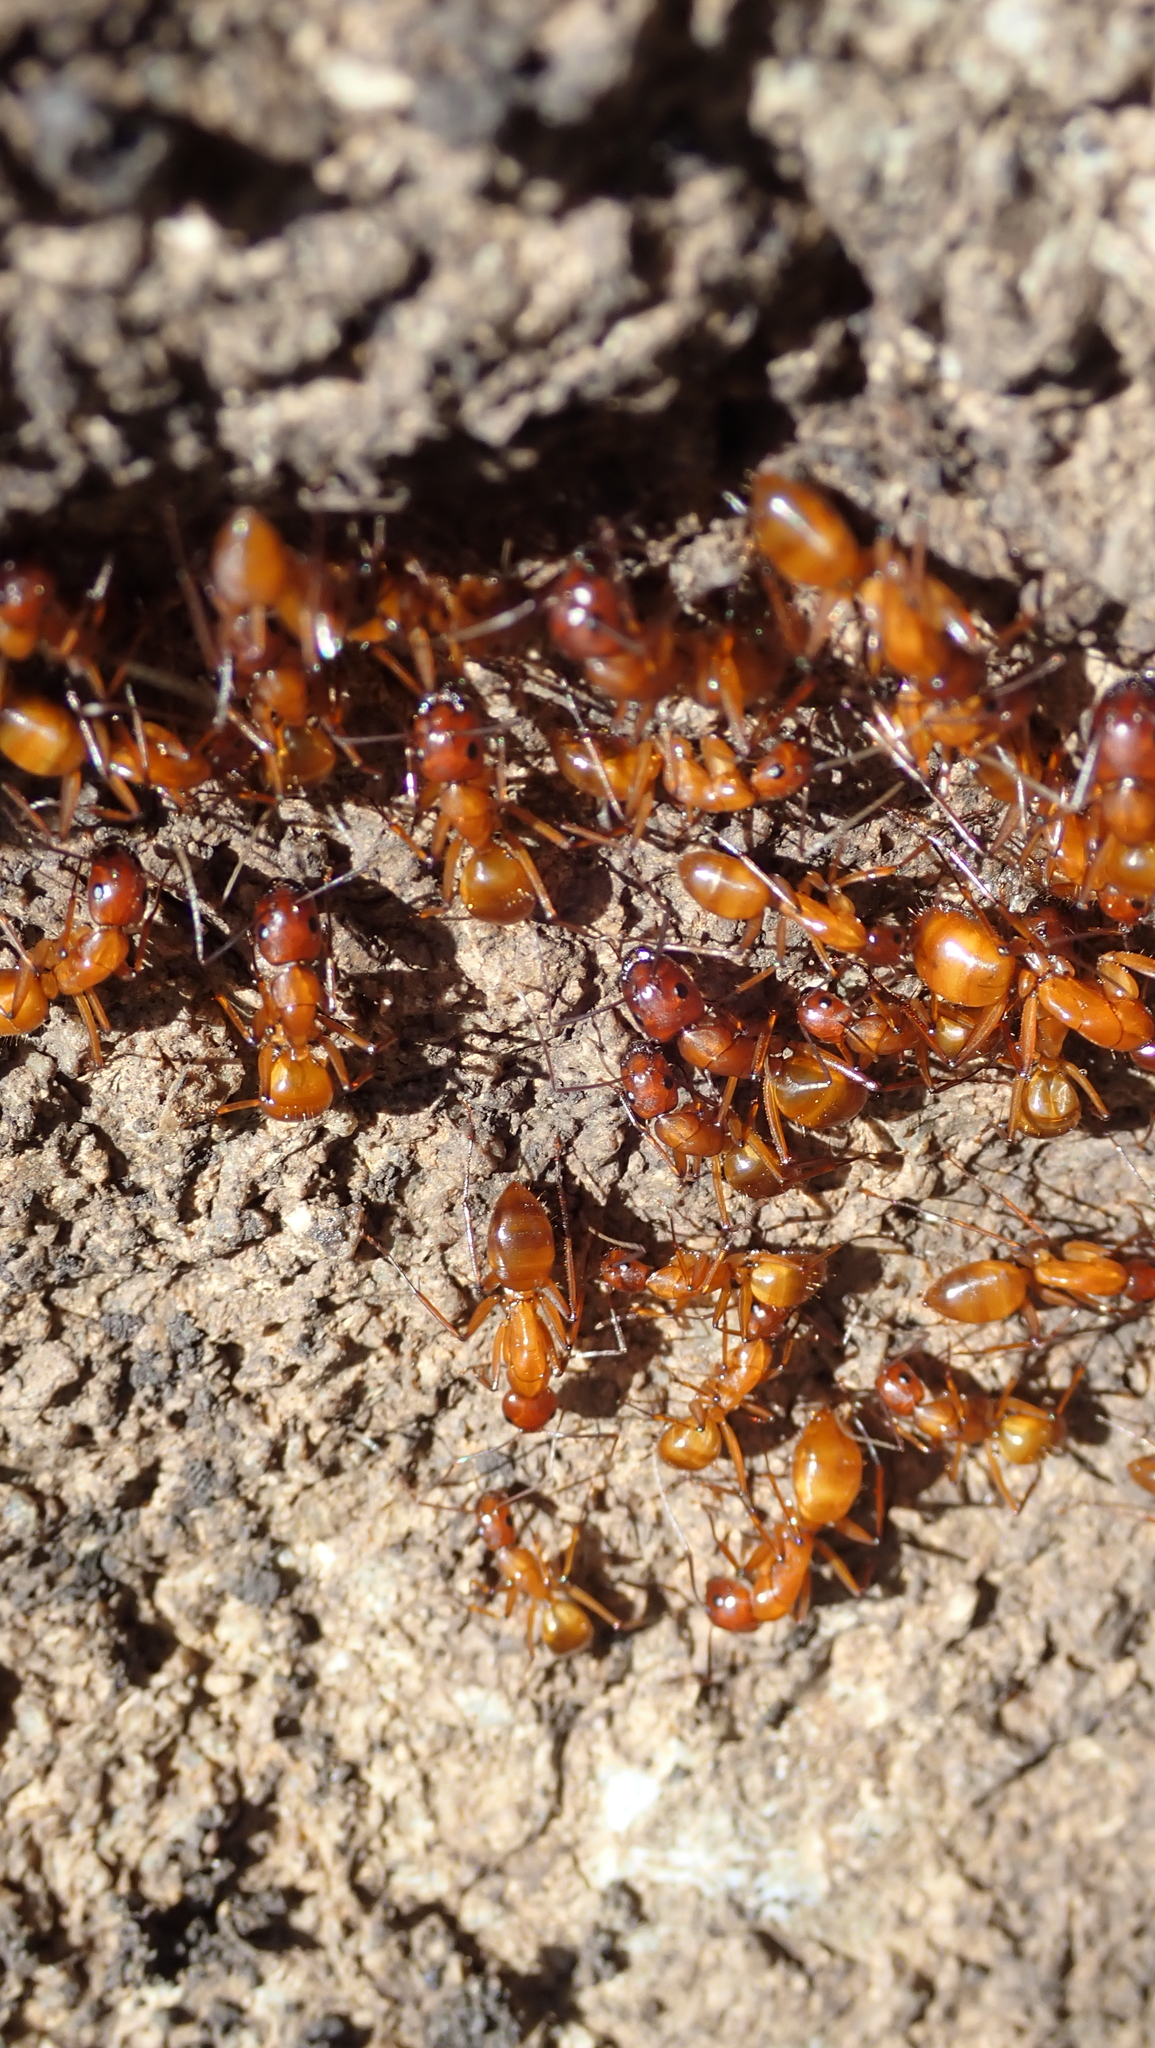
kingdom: Animalia
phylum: Arthropoda
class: Insecta
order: Hymenoptera
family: Formicidae
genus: Camponotus
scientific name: Camponotus castaneus
